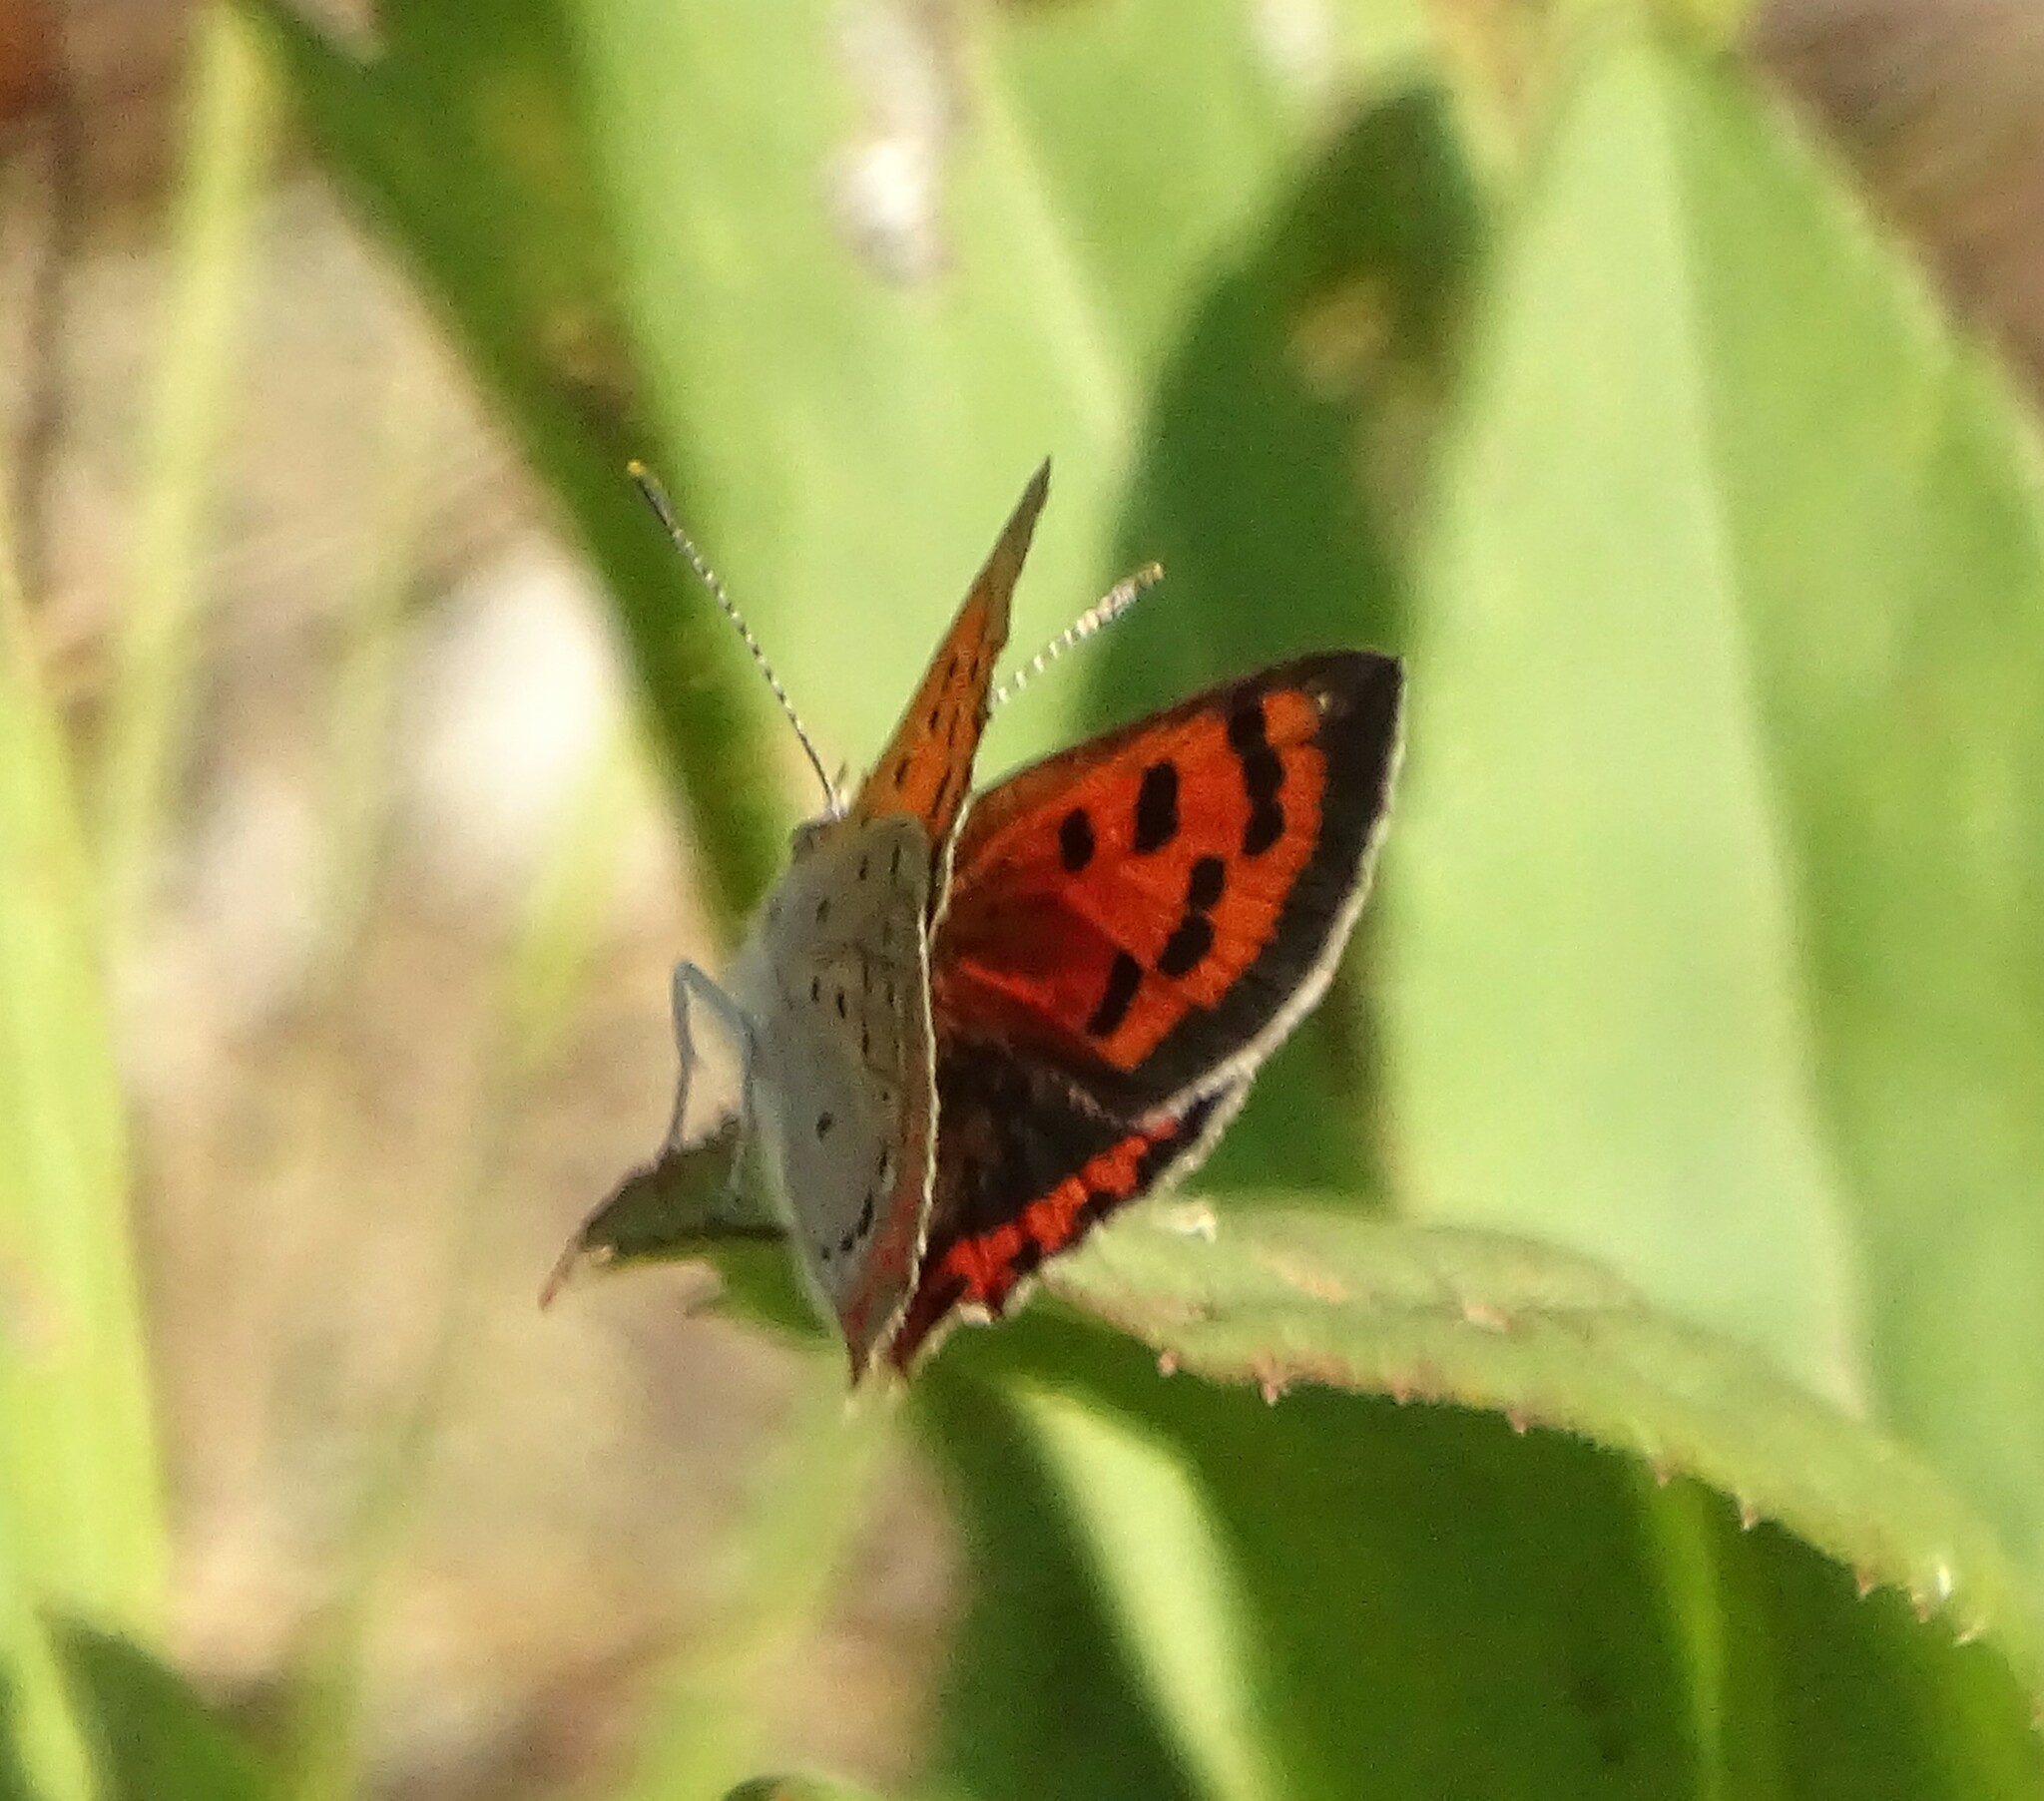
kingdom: Animalia
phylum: Arthropoda
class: Insecta
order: Lepidoptera
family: Lycaenidae
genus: Lycaena
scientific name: Lycaena hypophlaeas
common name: American copper
